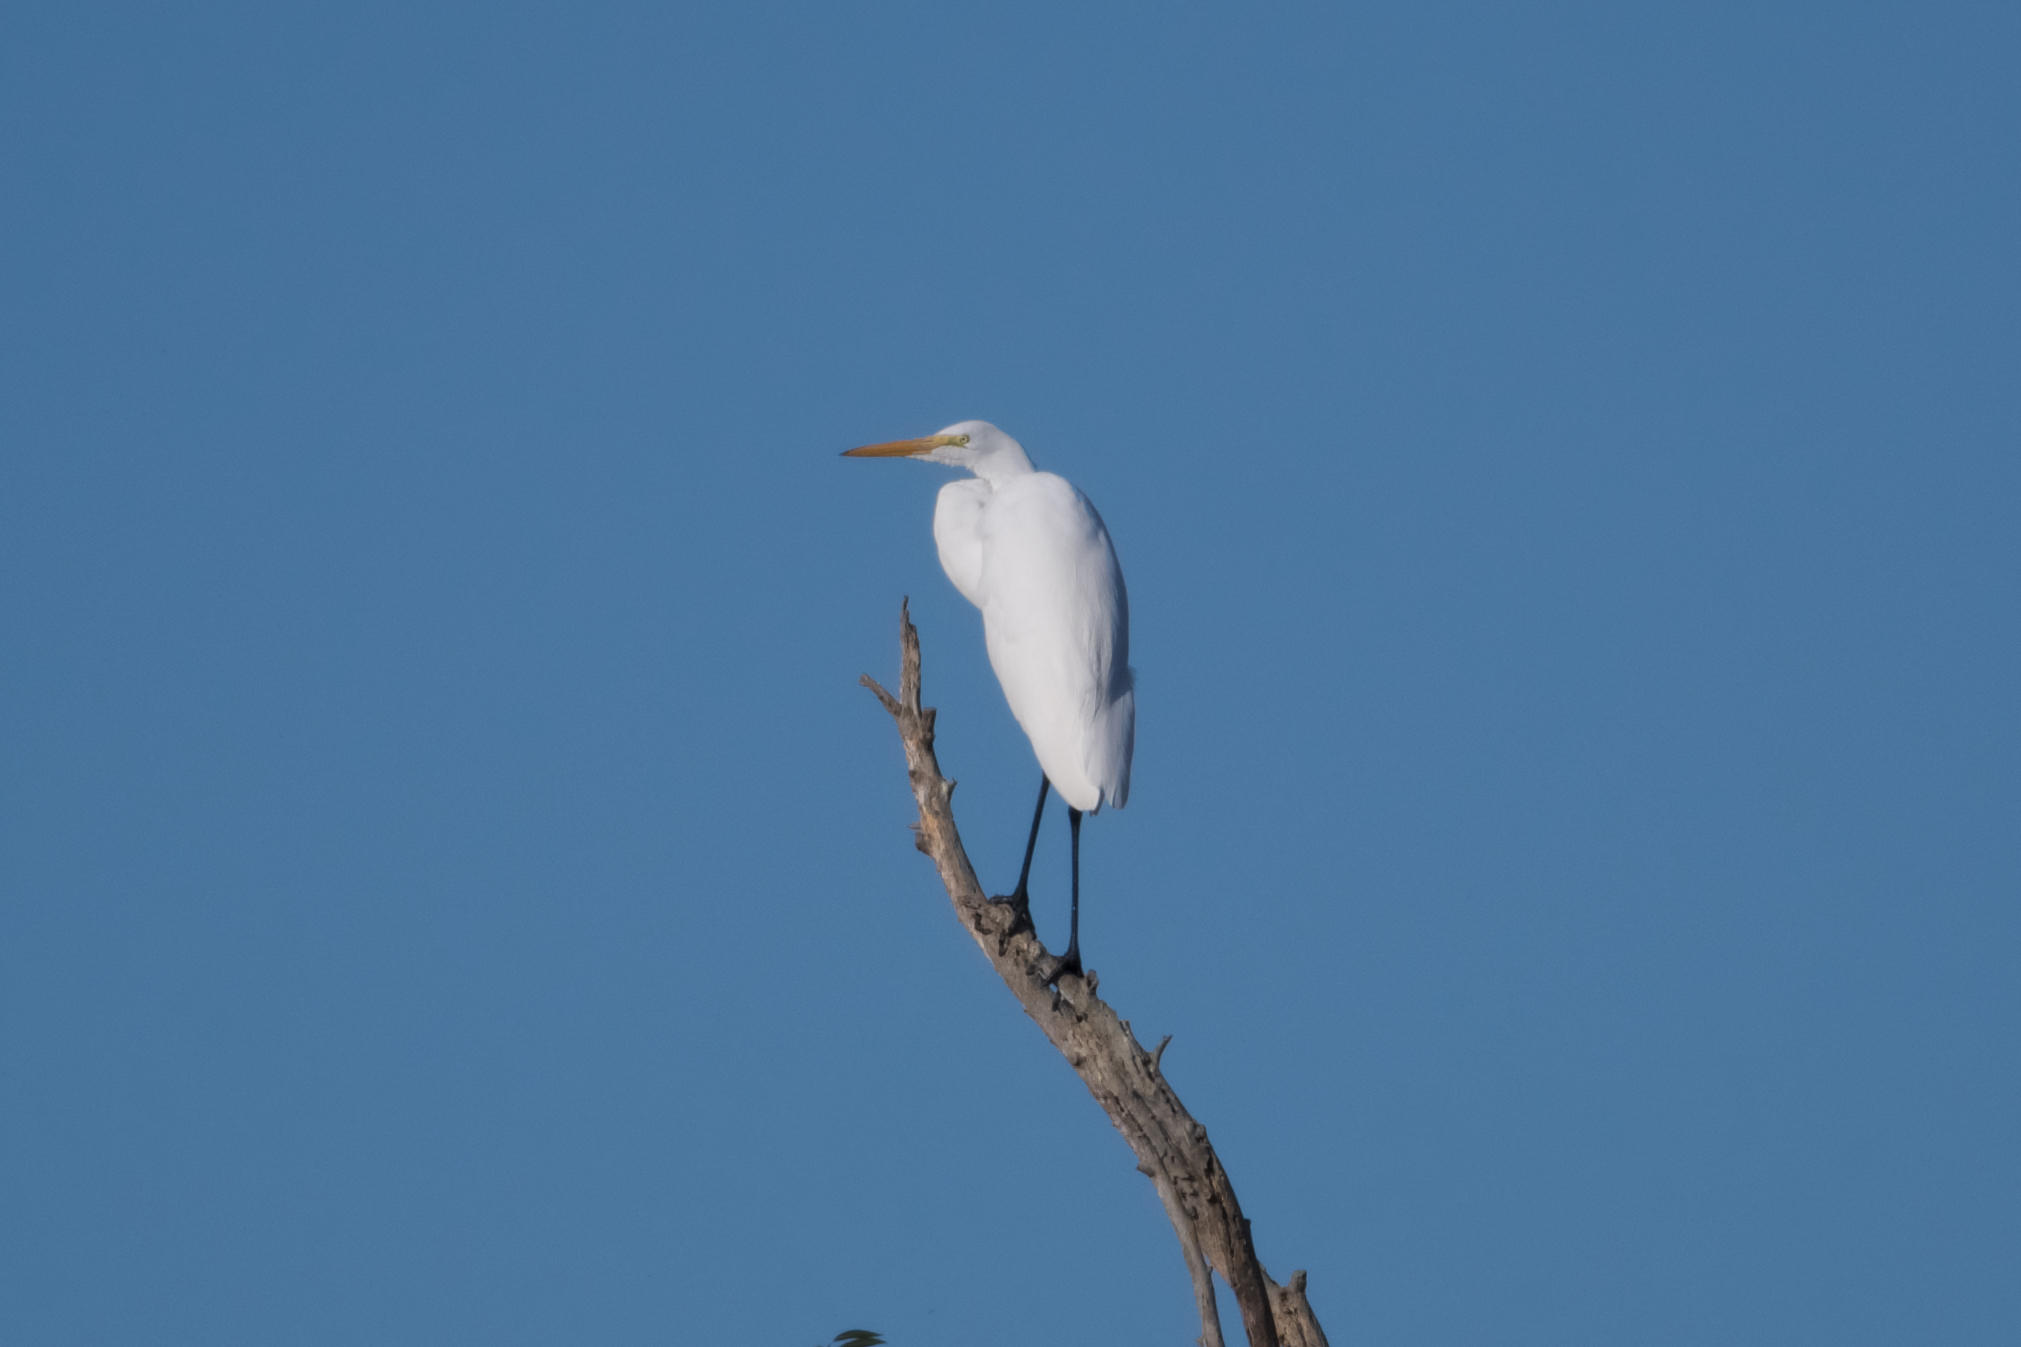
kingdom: Animalia
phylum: Chordata
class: Aves
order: Pelecaniformes
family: Ardeidae
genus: Ardea
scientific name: Ardea alba
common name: Great egret
